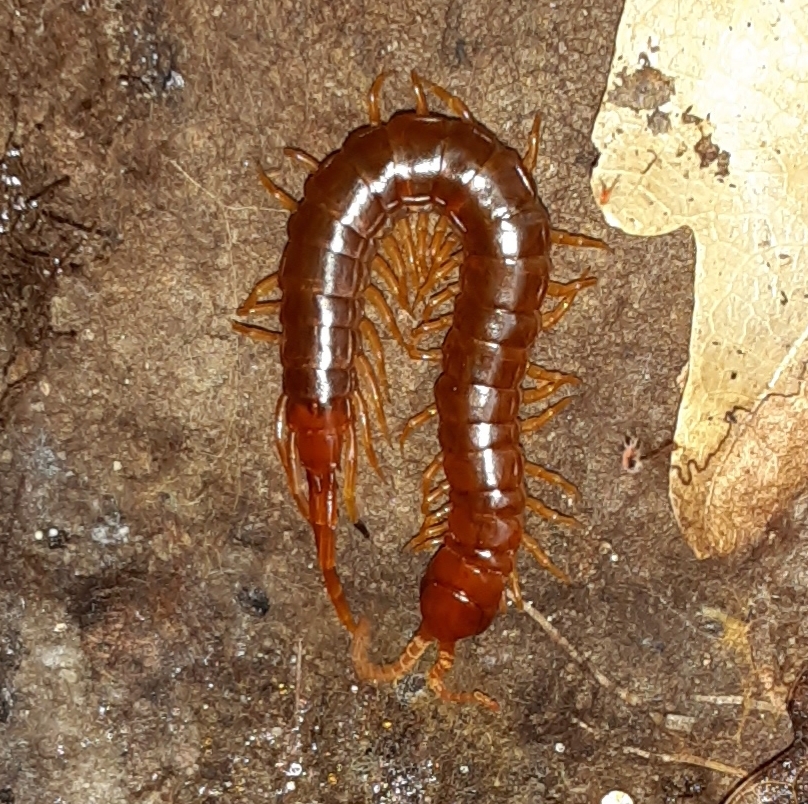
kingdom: Animalia
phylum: Arthropoda
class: Chilopoda
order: Scolopendromorpha
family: Scolopocryptopidae
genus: Scolopocryptops
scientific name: Scolopocryptops sexspinosus
